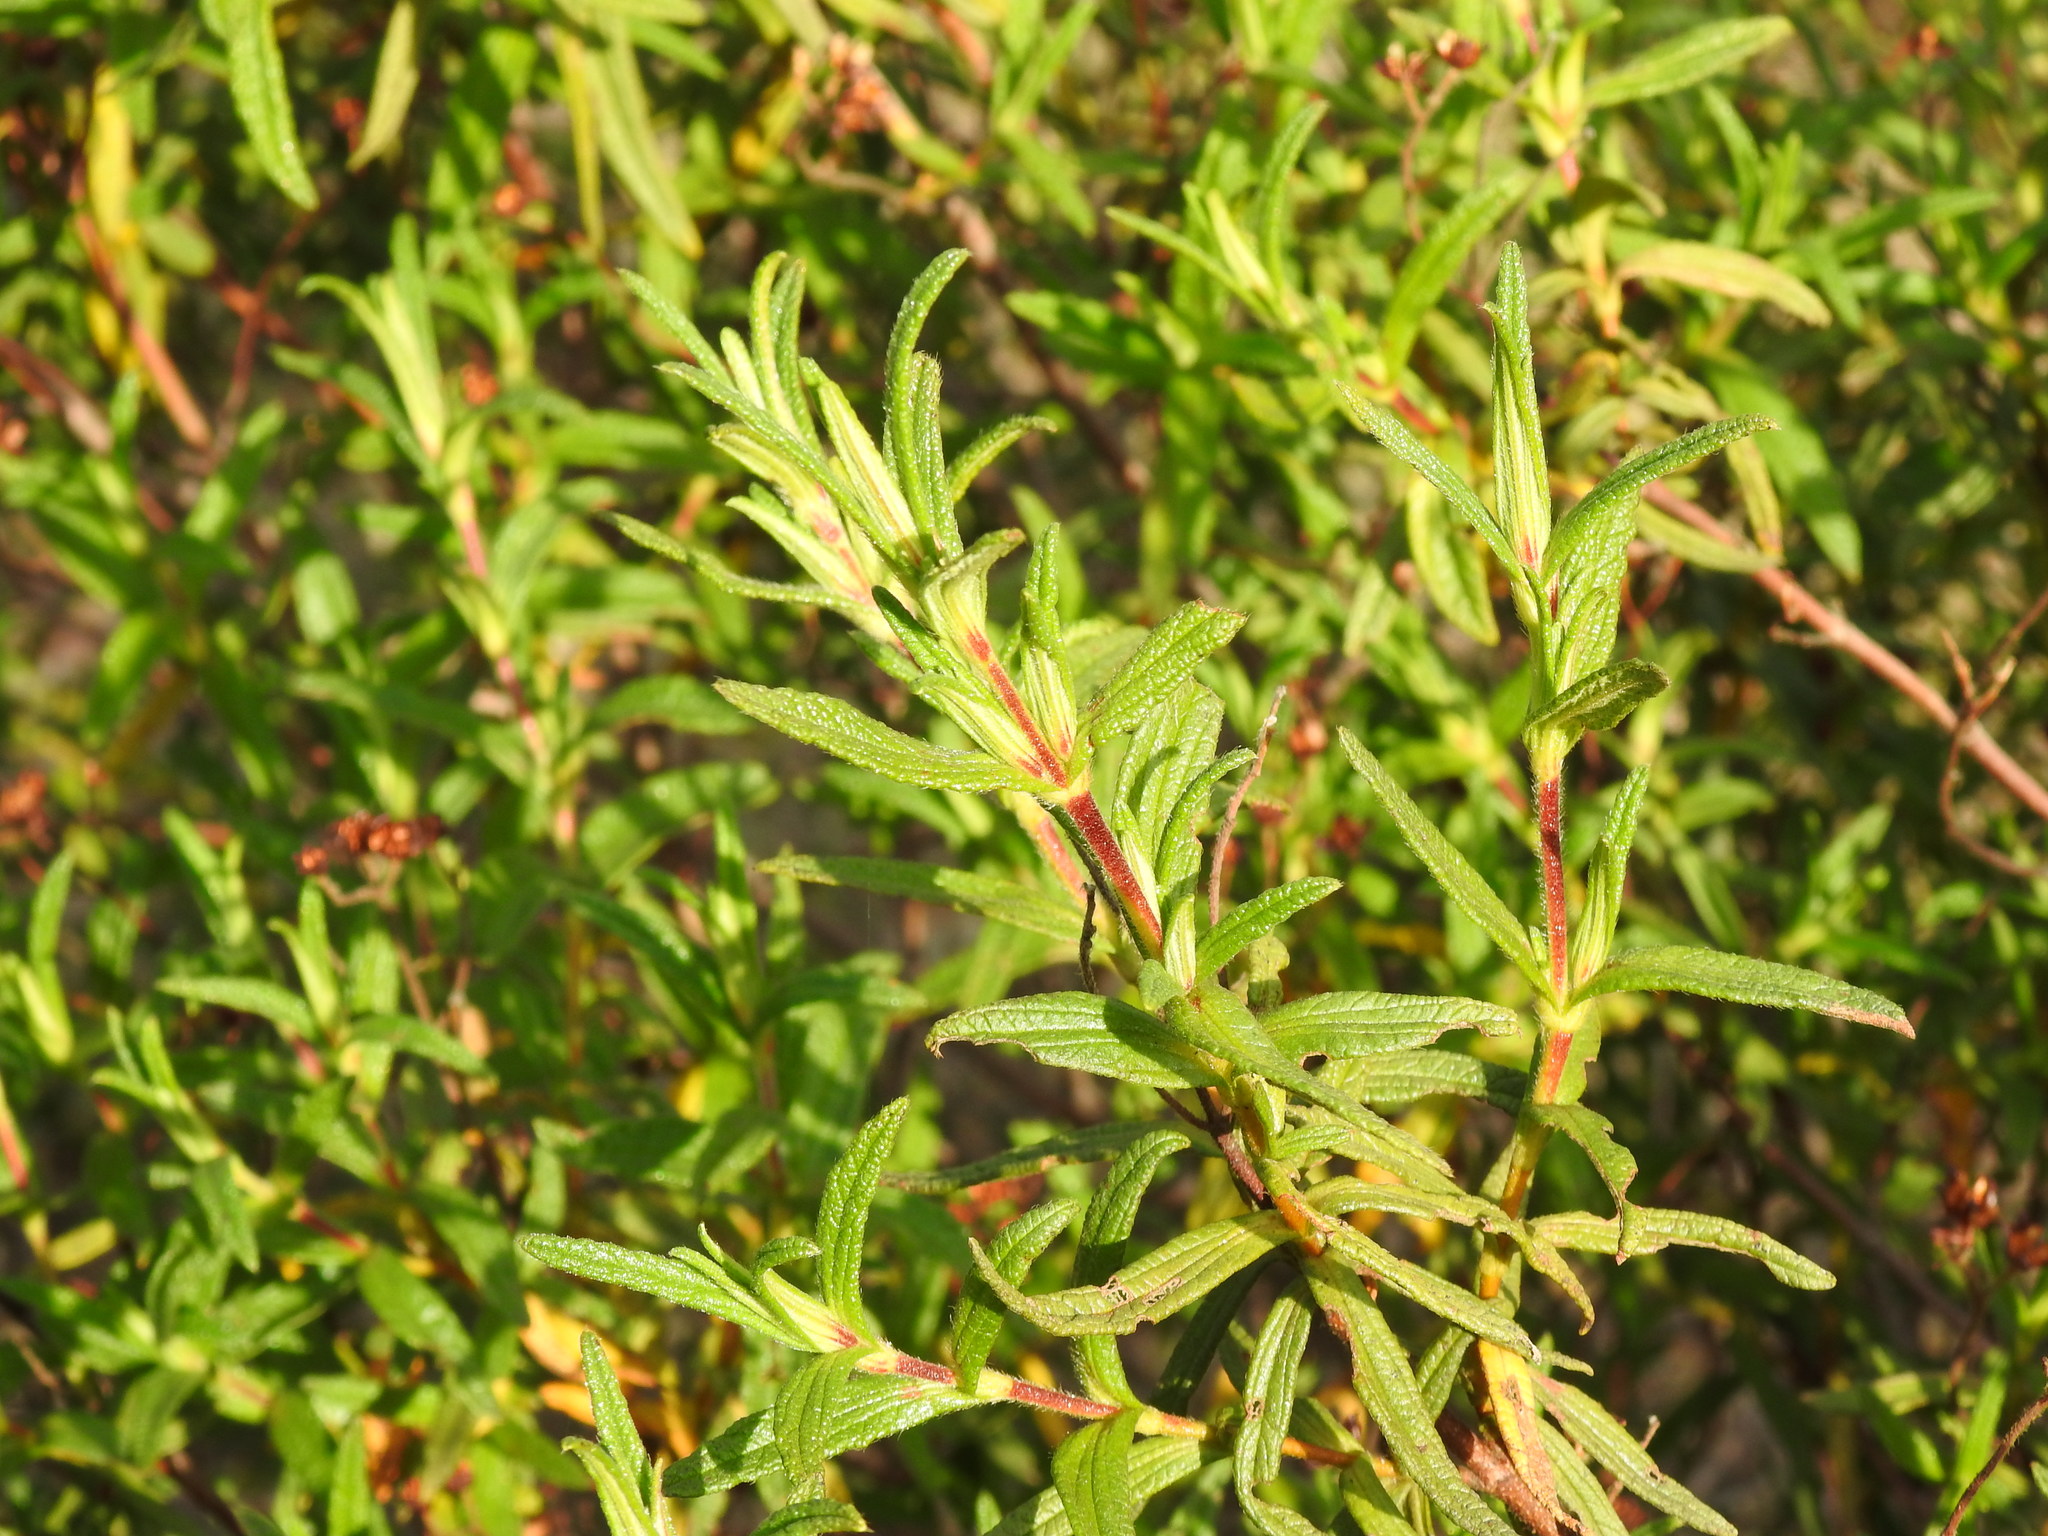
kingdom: Plantae
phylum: Tracheophyta
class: Magnoliopsida
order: Malvales
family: Cistaceae
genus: Cistus
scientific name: Cistus monspeliensis
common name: Montpelier cistus
